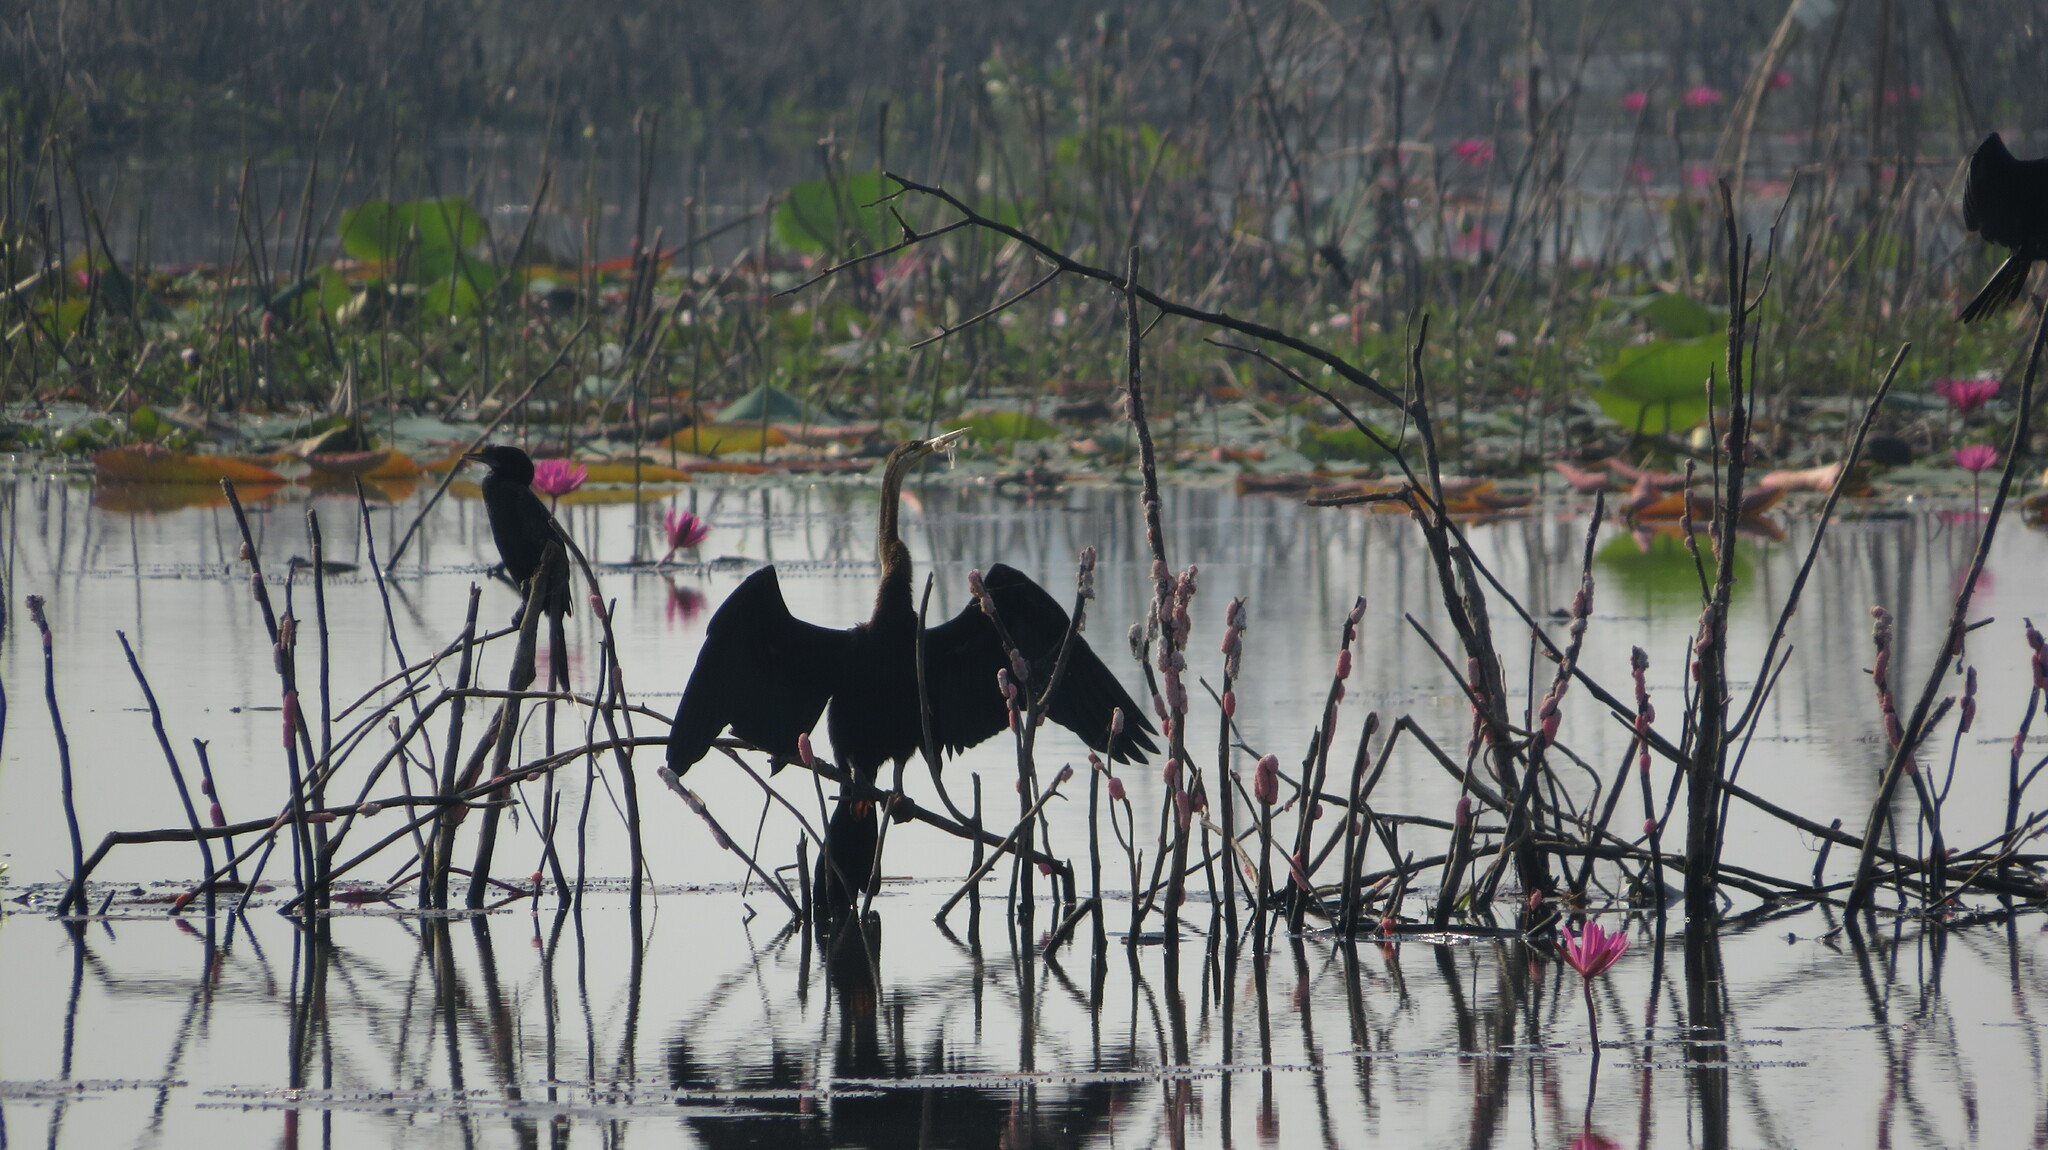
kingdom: Animalia
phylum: Chordata
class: Aves
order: Suliformes
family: Anhingidae
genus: Anhinga
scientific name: Anhinga melanogaster
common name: Oriental darter
